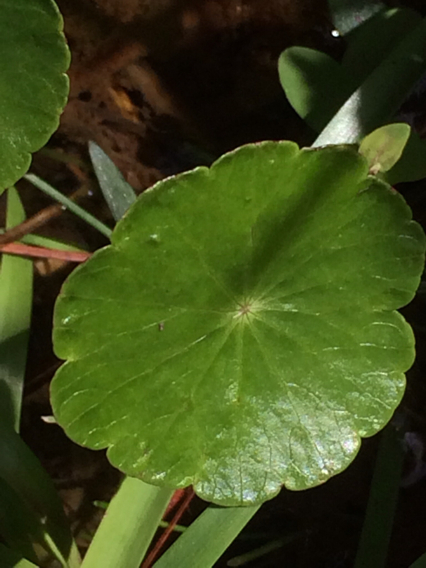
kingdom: Plantae
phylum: Tracheophyta
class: Magnoliopsida
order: Apiales
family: Araliaceae
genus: Hydrocotyle
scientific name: Hydrocotyle umbellata
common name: Water pennywort
